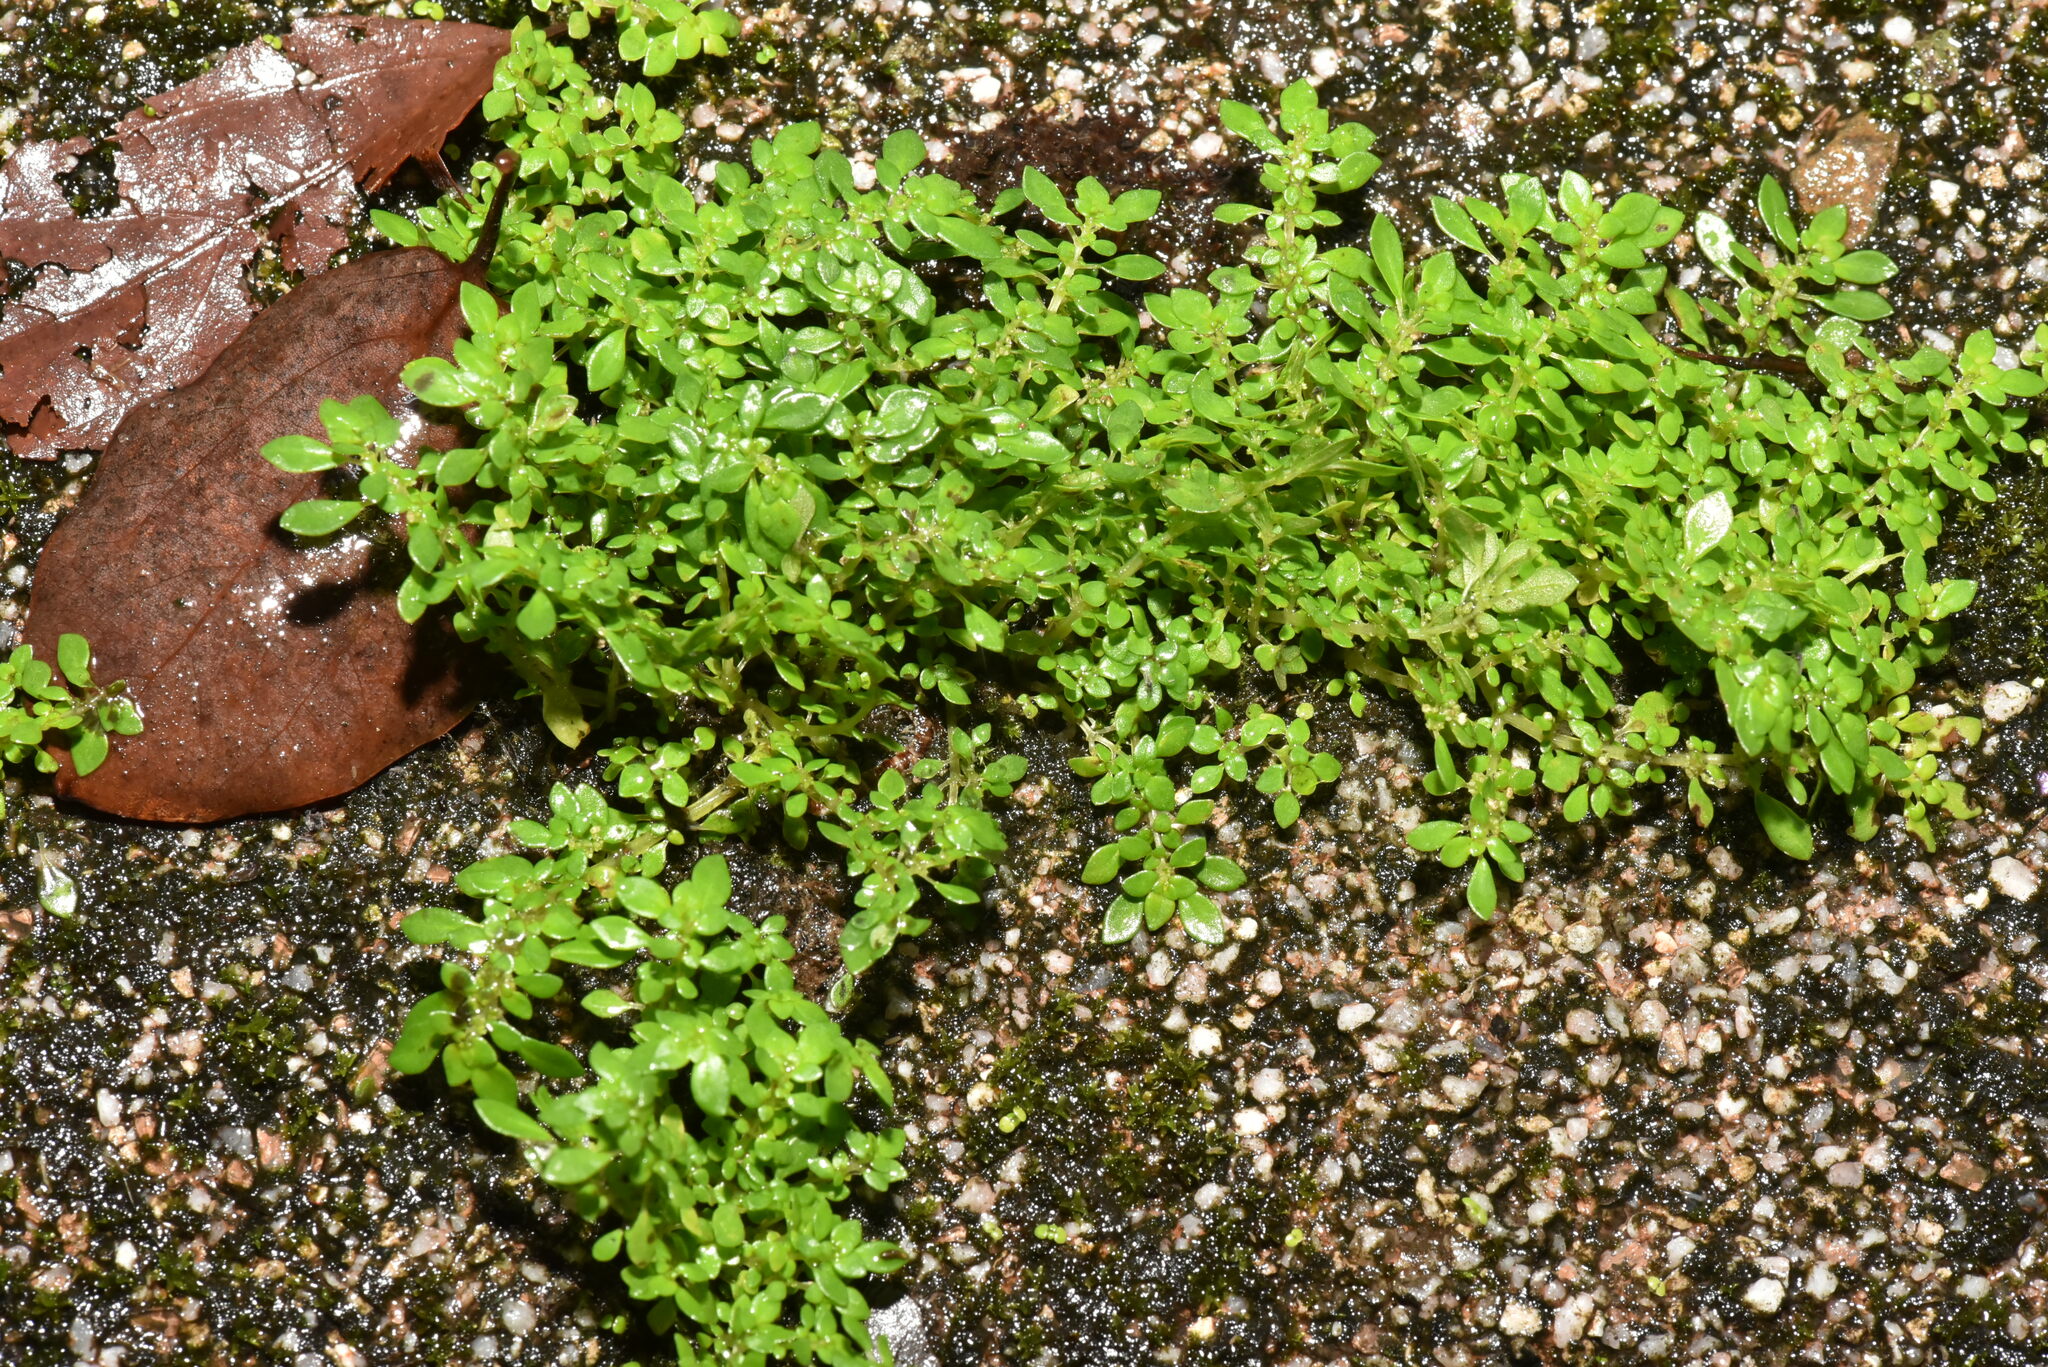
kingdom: Plantae
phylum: Tracheophyta
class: Magnoliopsida
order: Rosales
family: Urticaceae
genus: Pilea
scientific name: Pilea microphylla
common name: Artillery-plant
